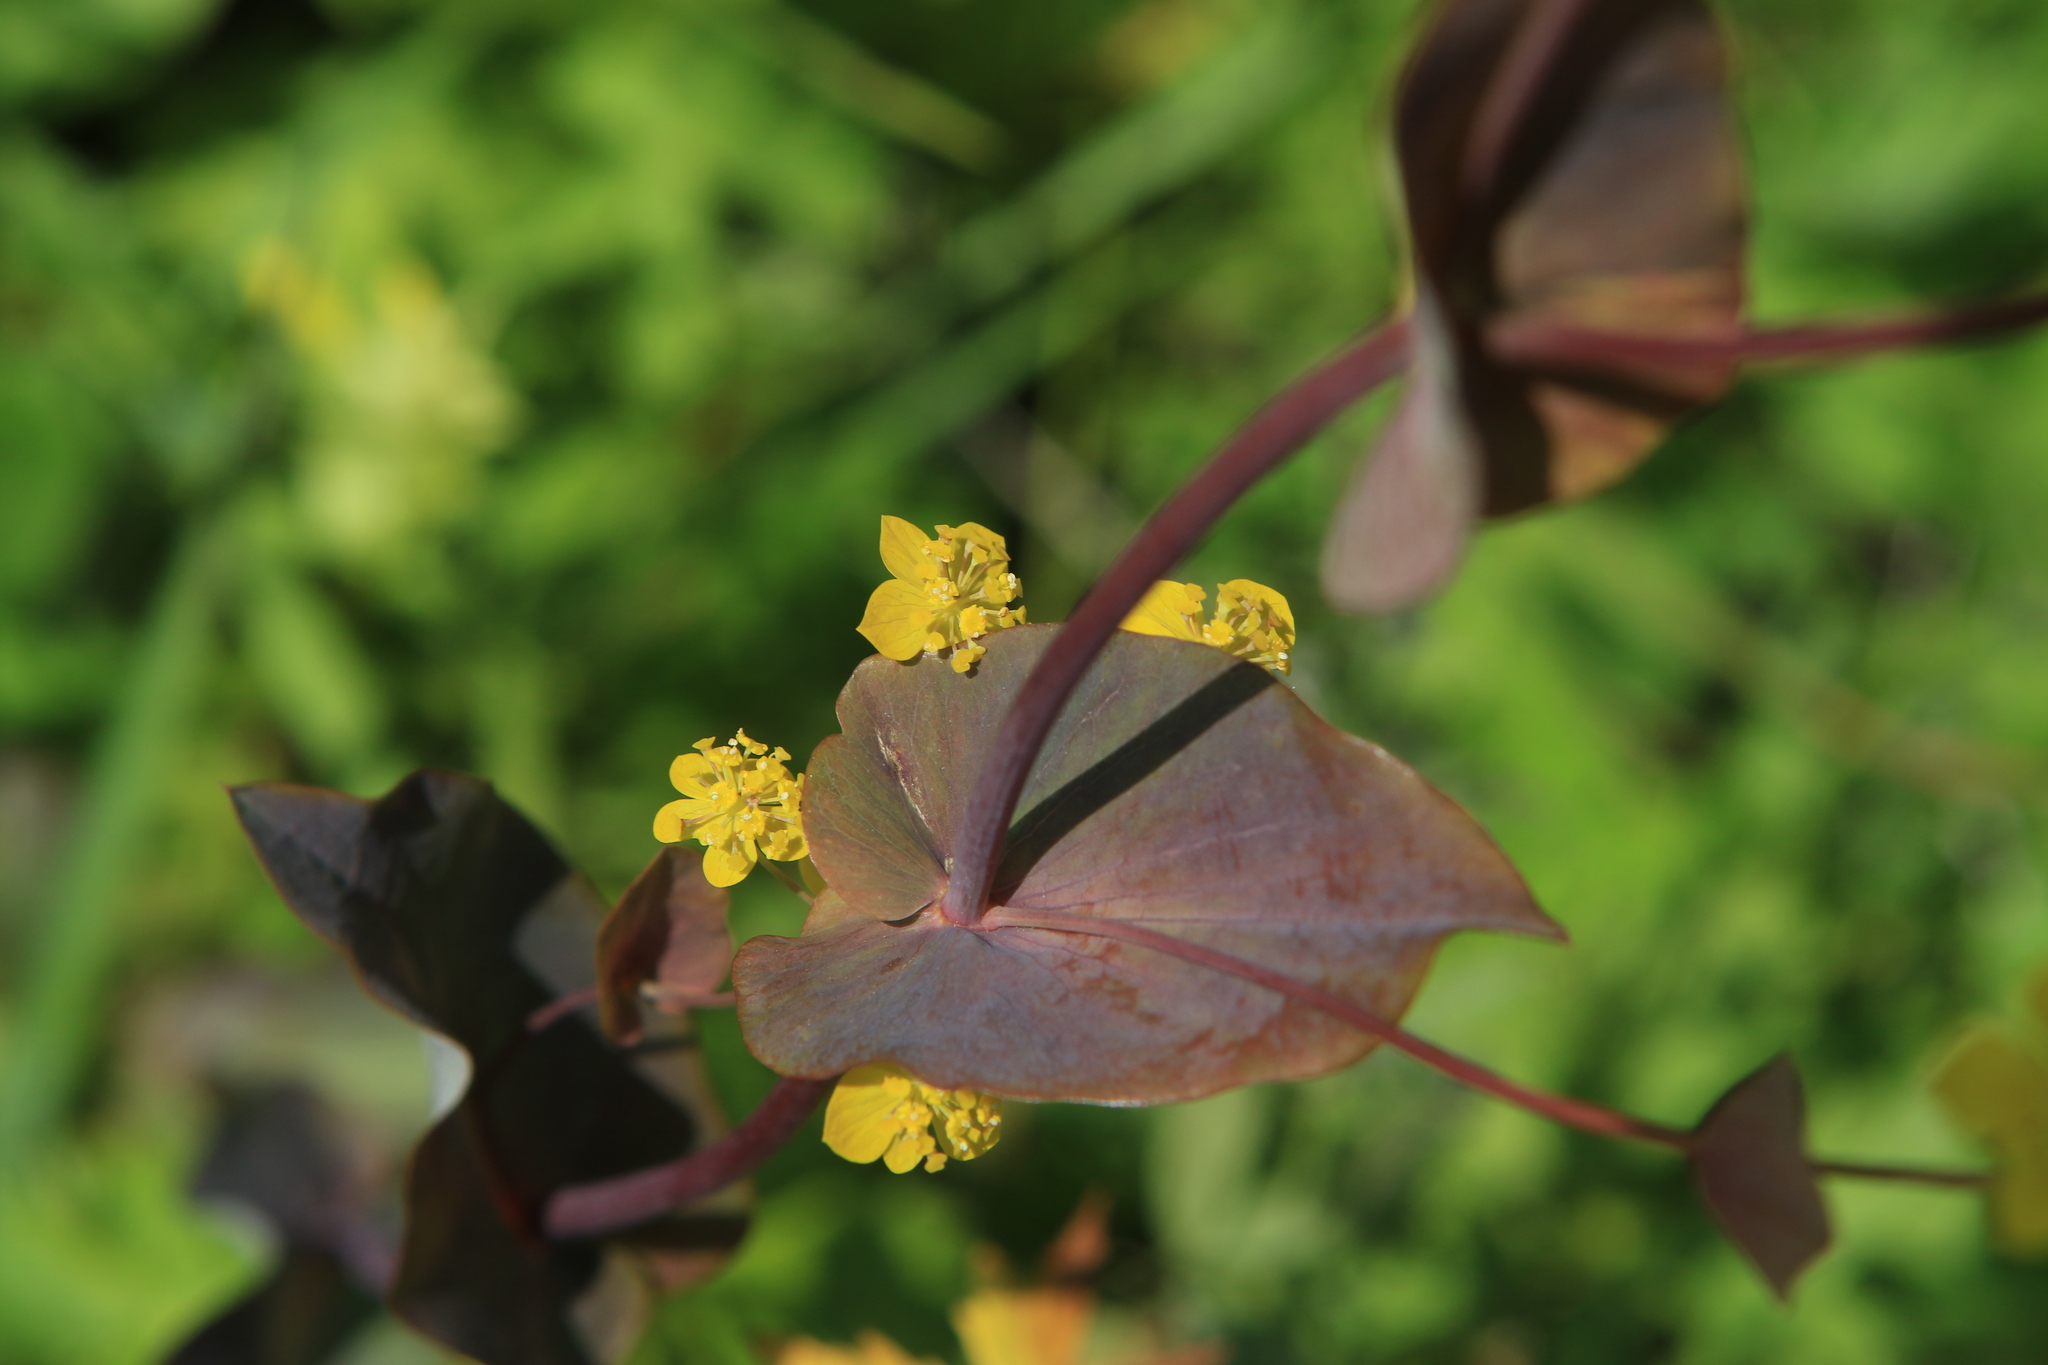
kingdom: Plantae
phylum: Tracheophyta
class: Magnoliopsida
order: Apiales
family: Apiaceae
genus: Bupleurum
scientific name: Bupleurum aureum
